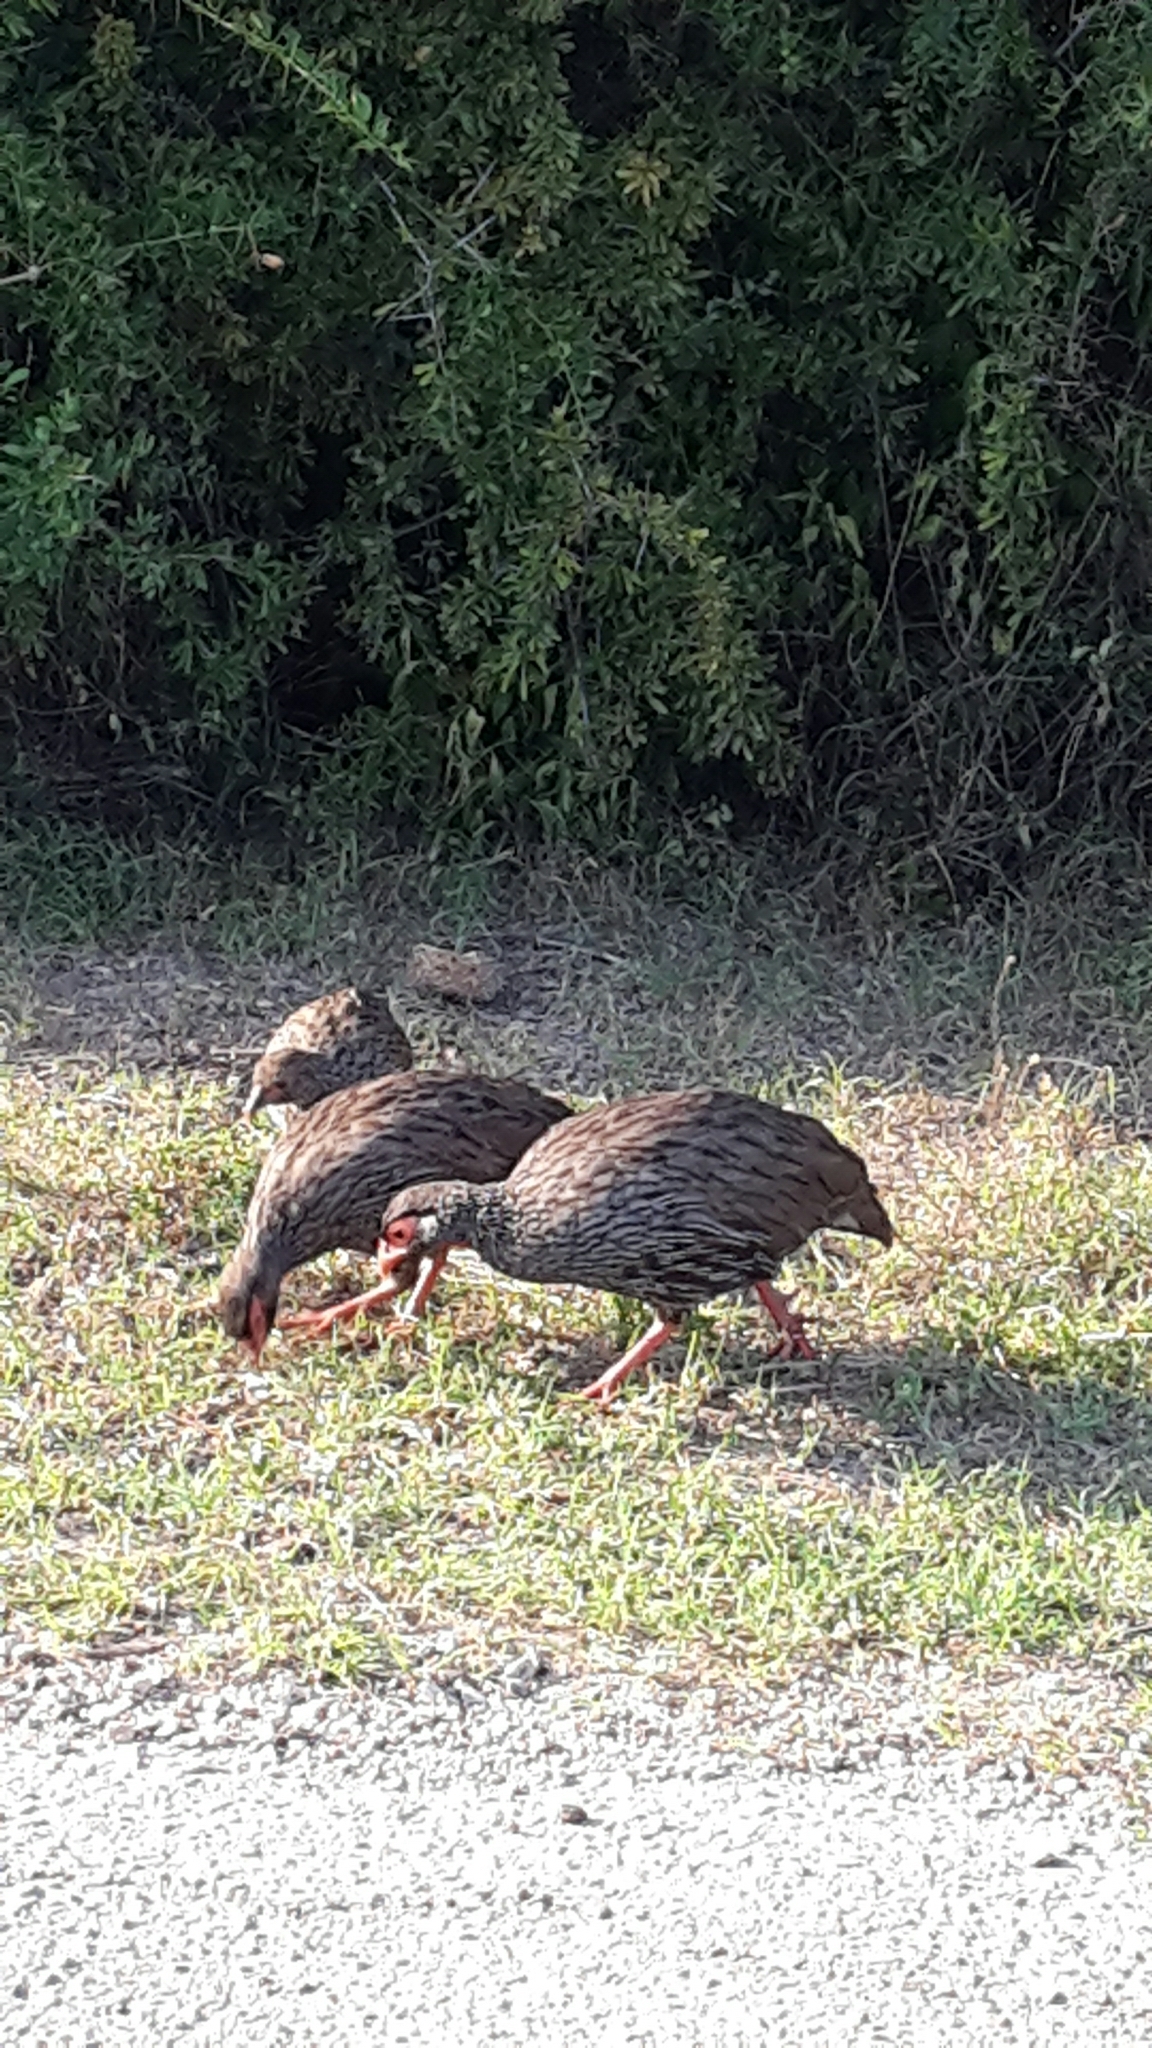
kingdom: Animalia
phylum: Chordata
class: Aves
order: Galliformes
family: Phasianidae
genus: Pternistis
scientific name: Pternistis afer
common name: Red-necked spurfowl
